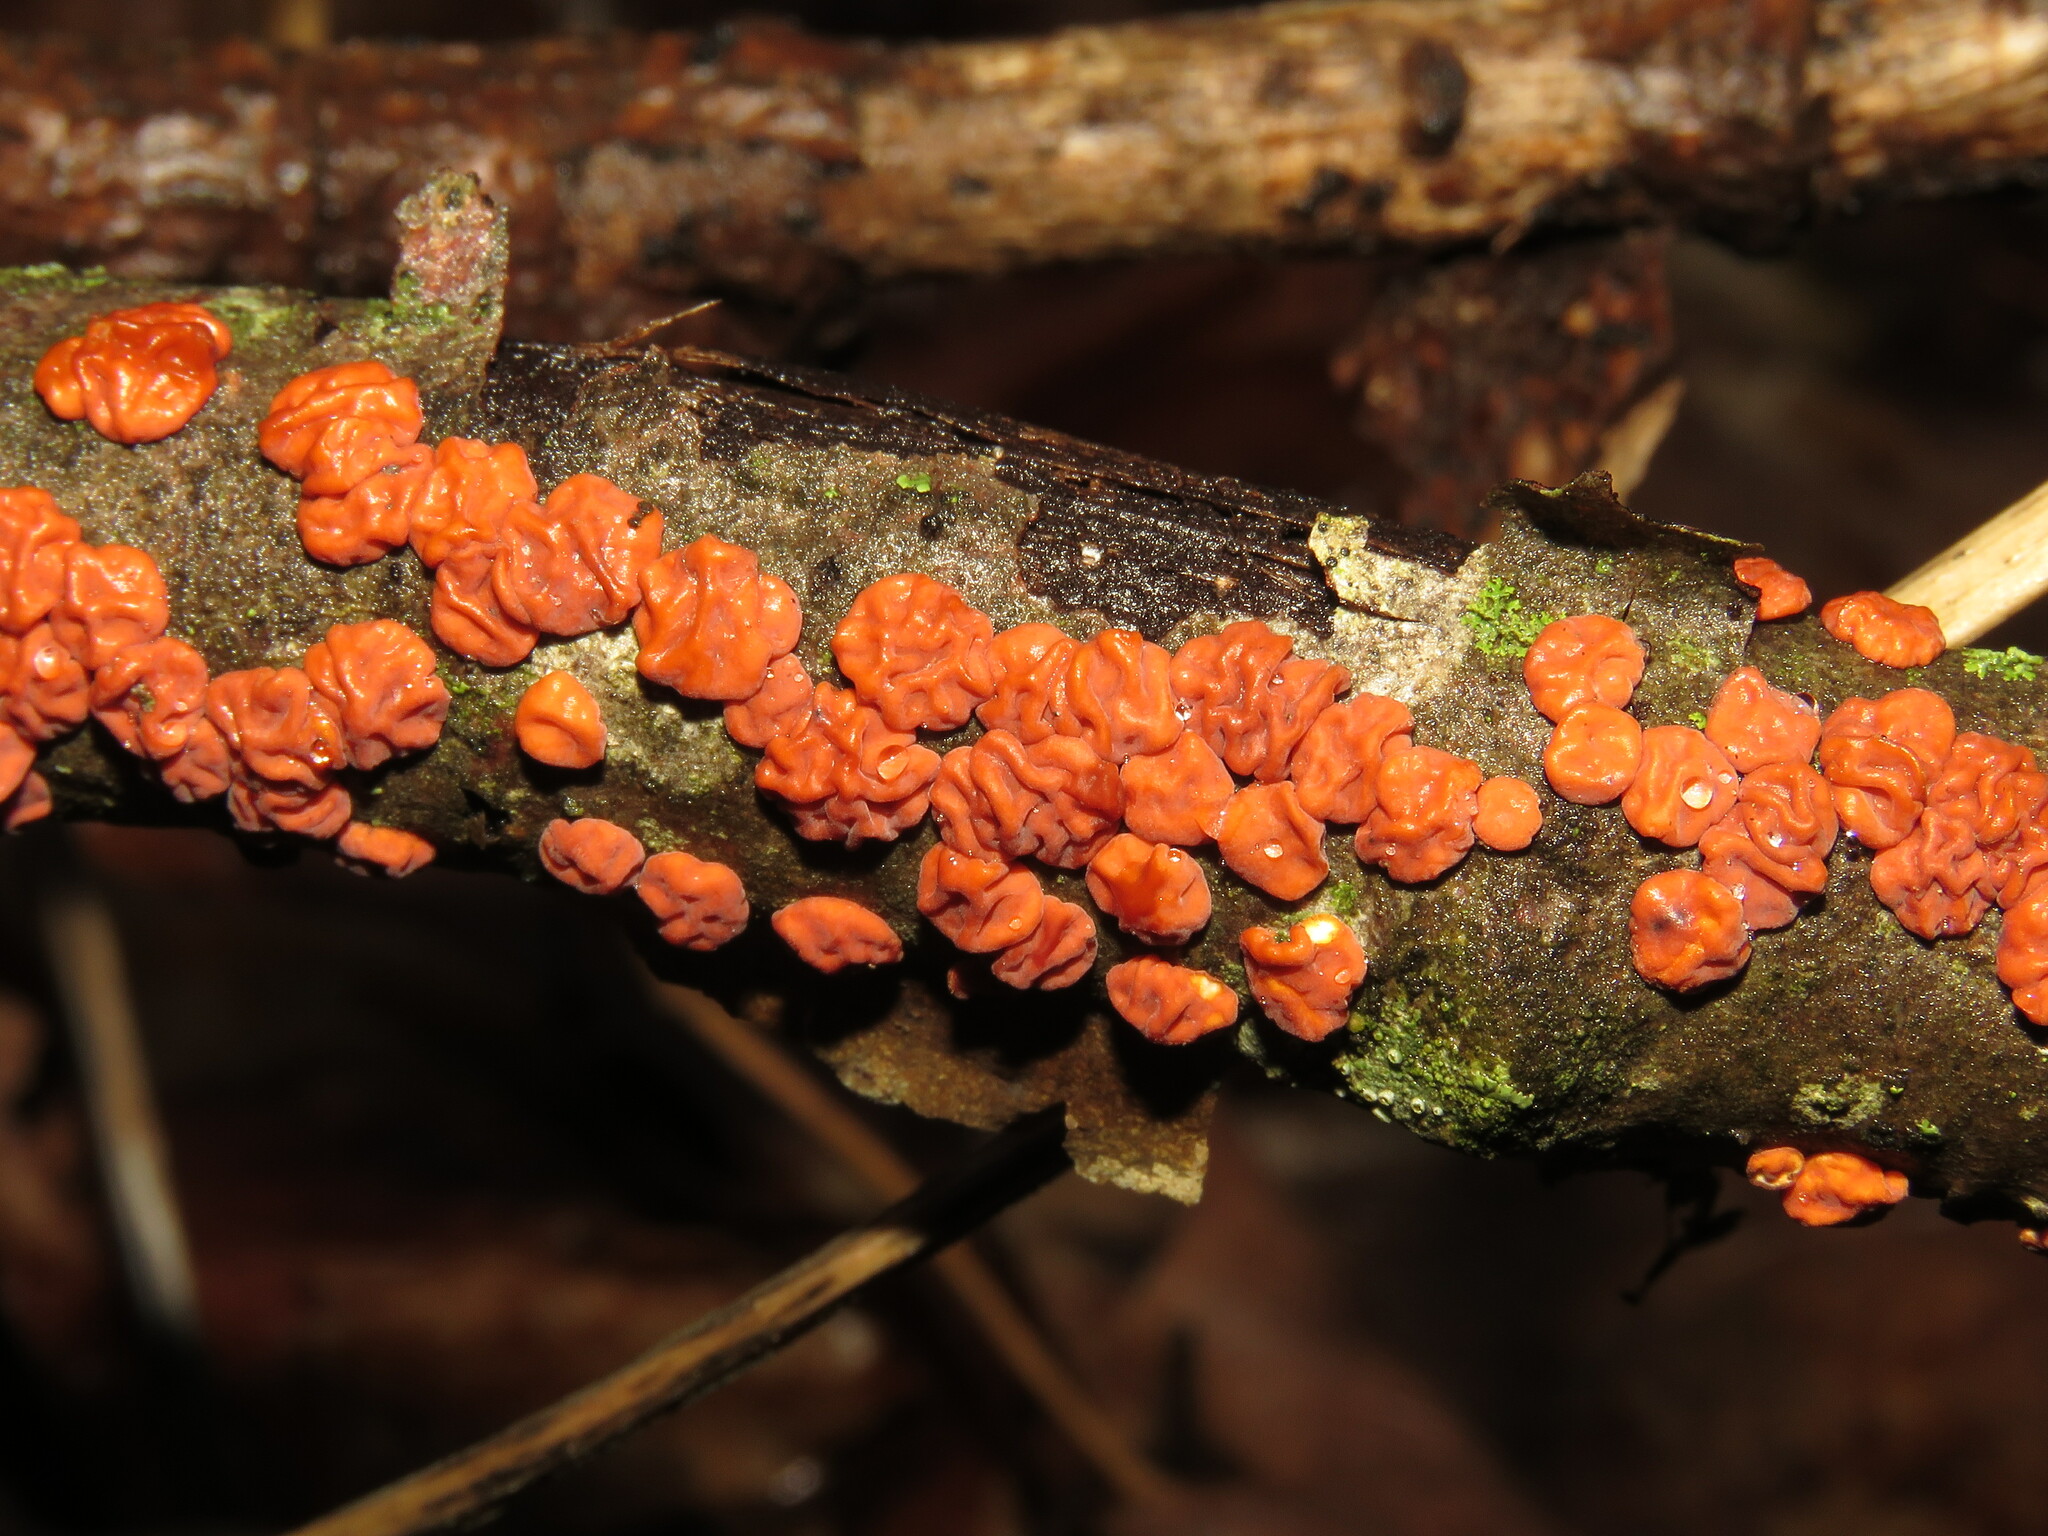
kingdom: Fungi
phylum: Basidiomycota
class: Agaricomycetes
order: Russulales
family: Peniophoraceae
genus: Peniophora
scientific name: Peniophora rufa
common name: Red tree brain fungus
